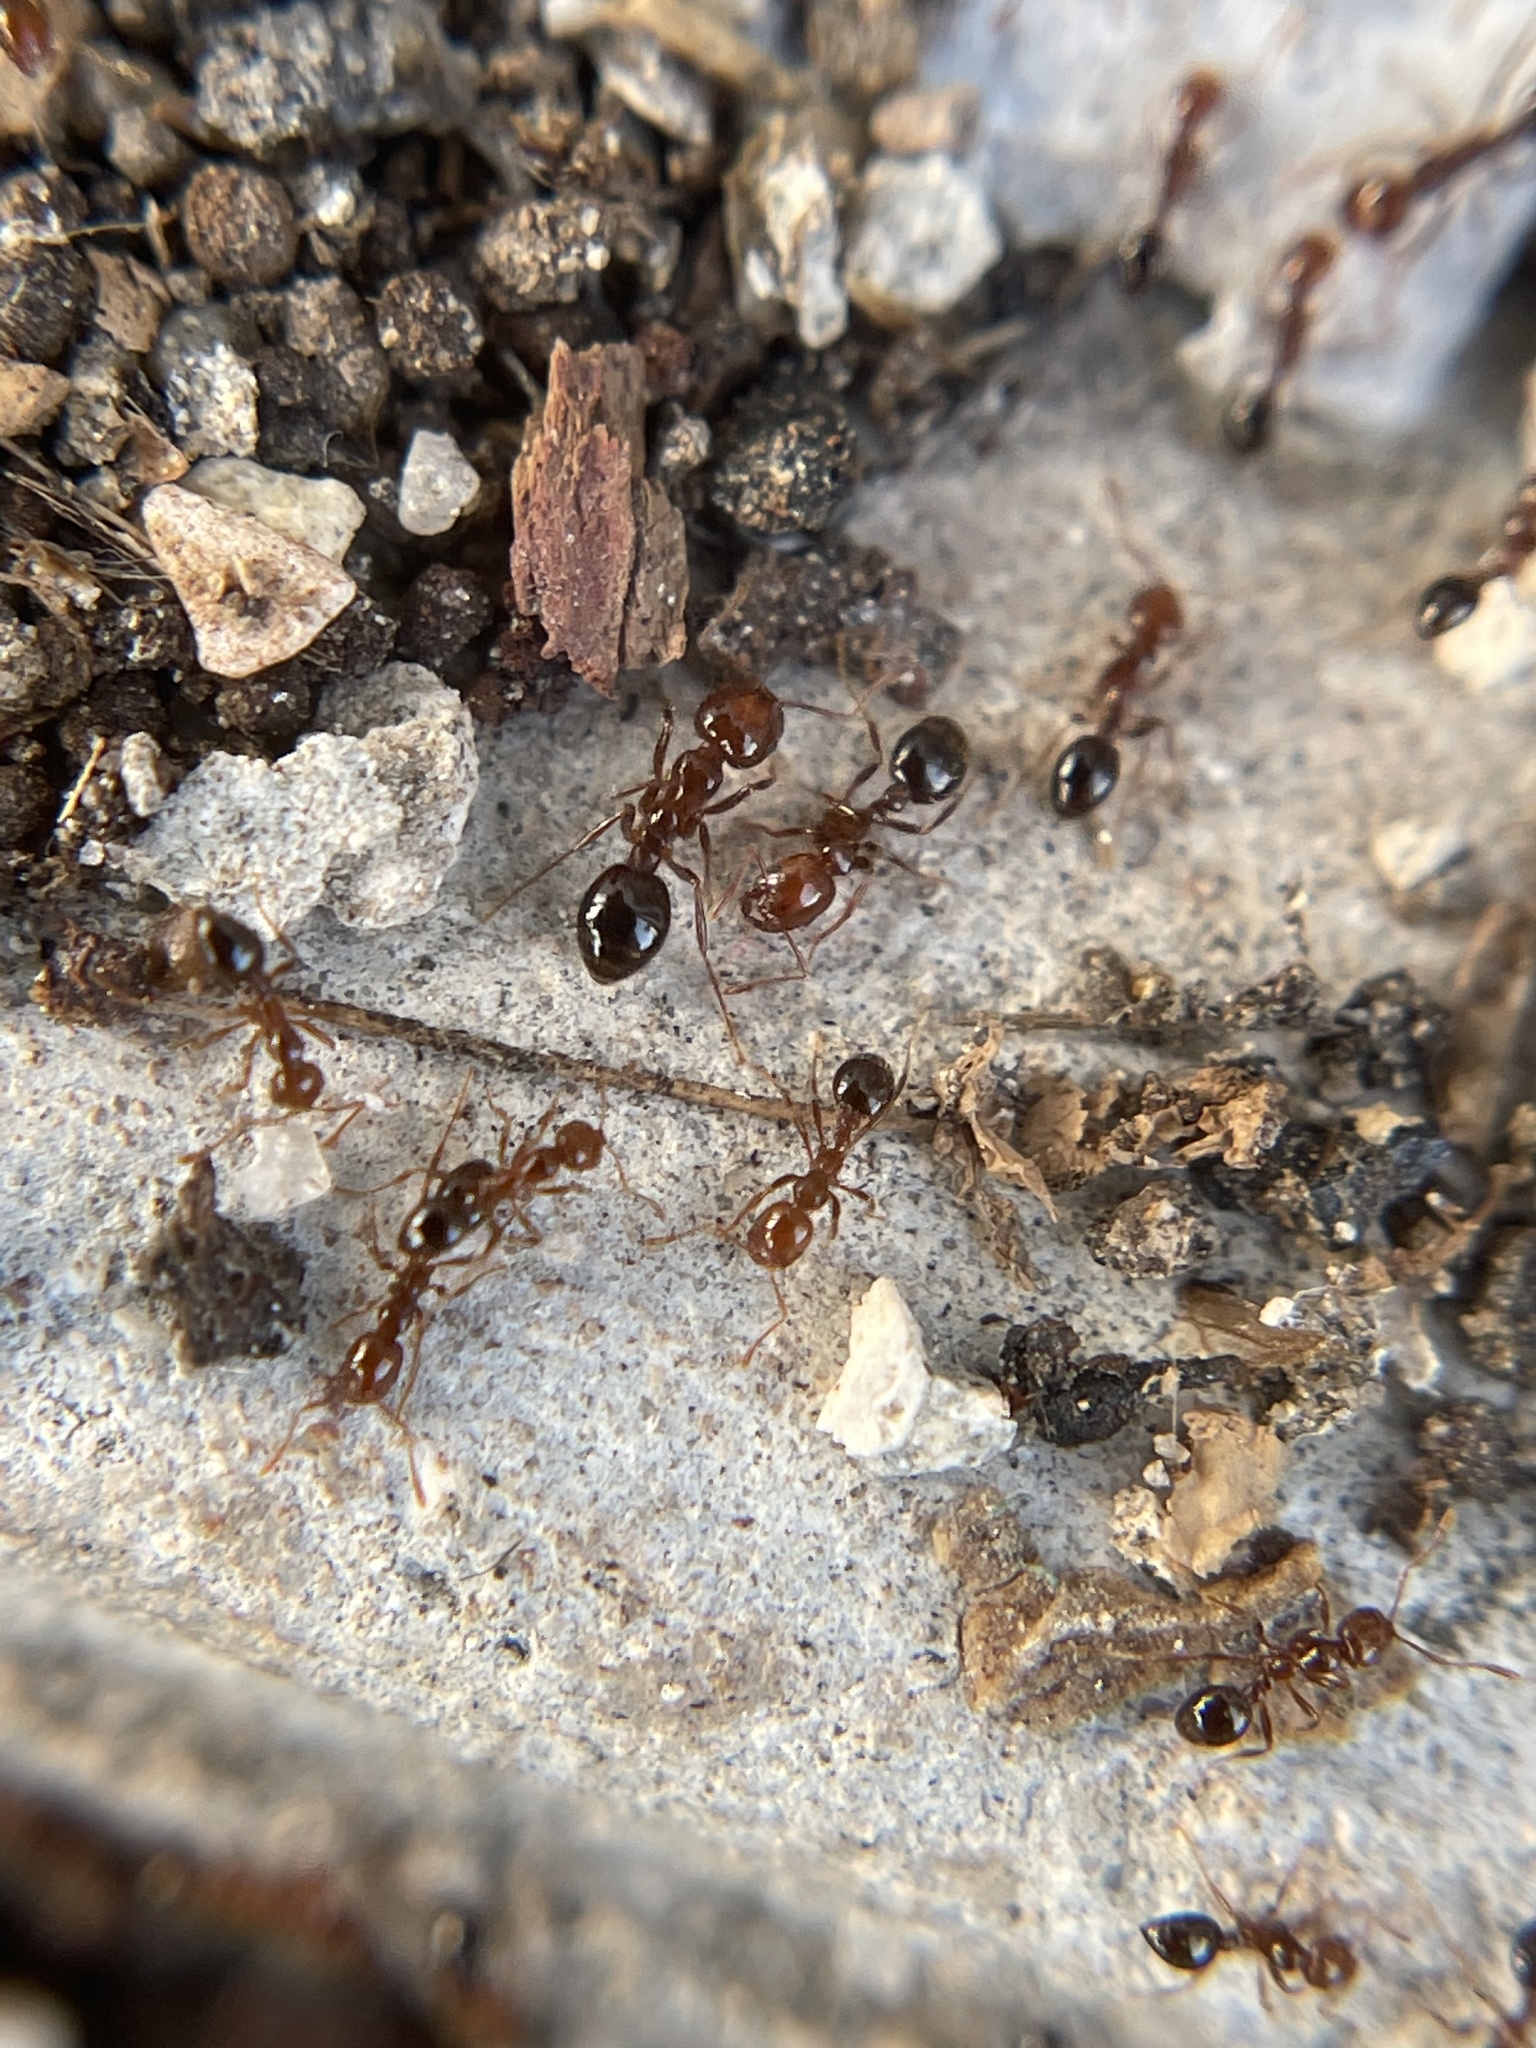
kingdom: Animalia
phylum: Arthropoda
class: Insecta
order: Hymenoptera
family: Formicidae
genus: Solenopsis
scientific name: Solenopsis invicta
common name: Red imported fire ant
